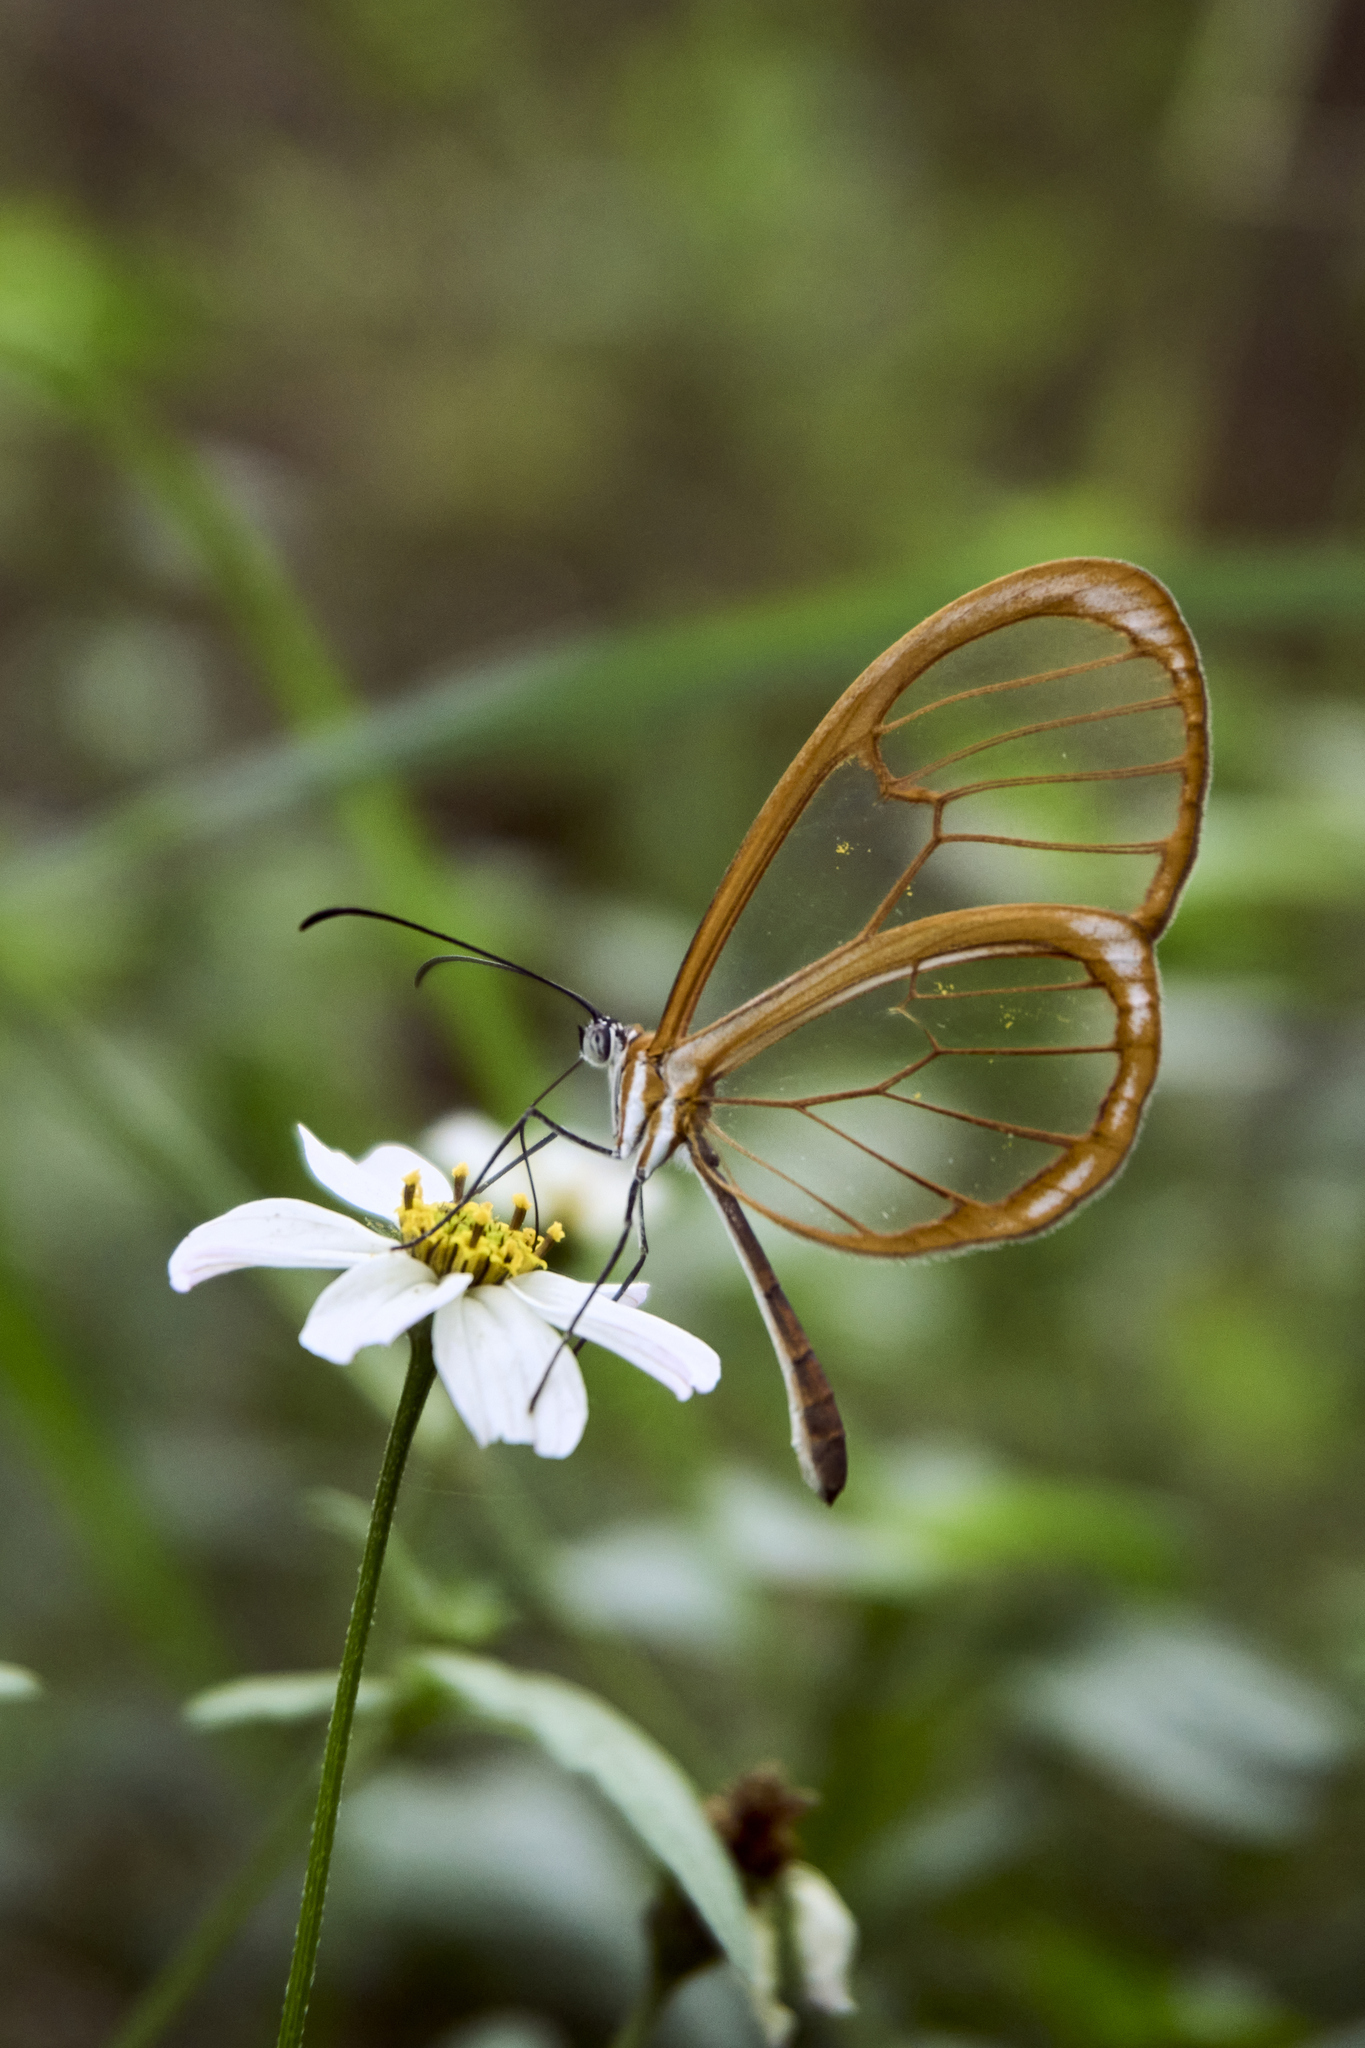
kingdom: Animalia
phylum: Arthropoda
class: Insecta
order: Lepidoptera
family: Nymphalidae
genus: Pteronymia
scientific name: Pteronymia rufocincta
